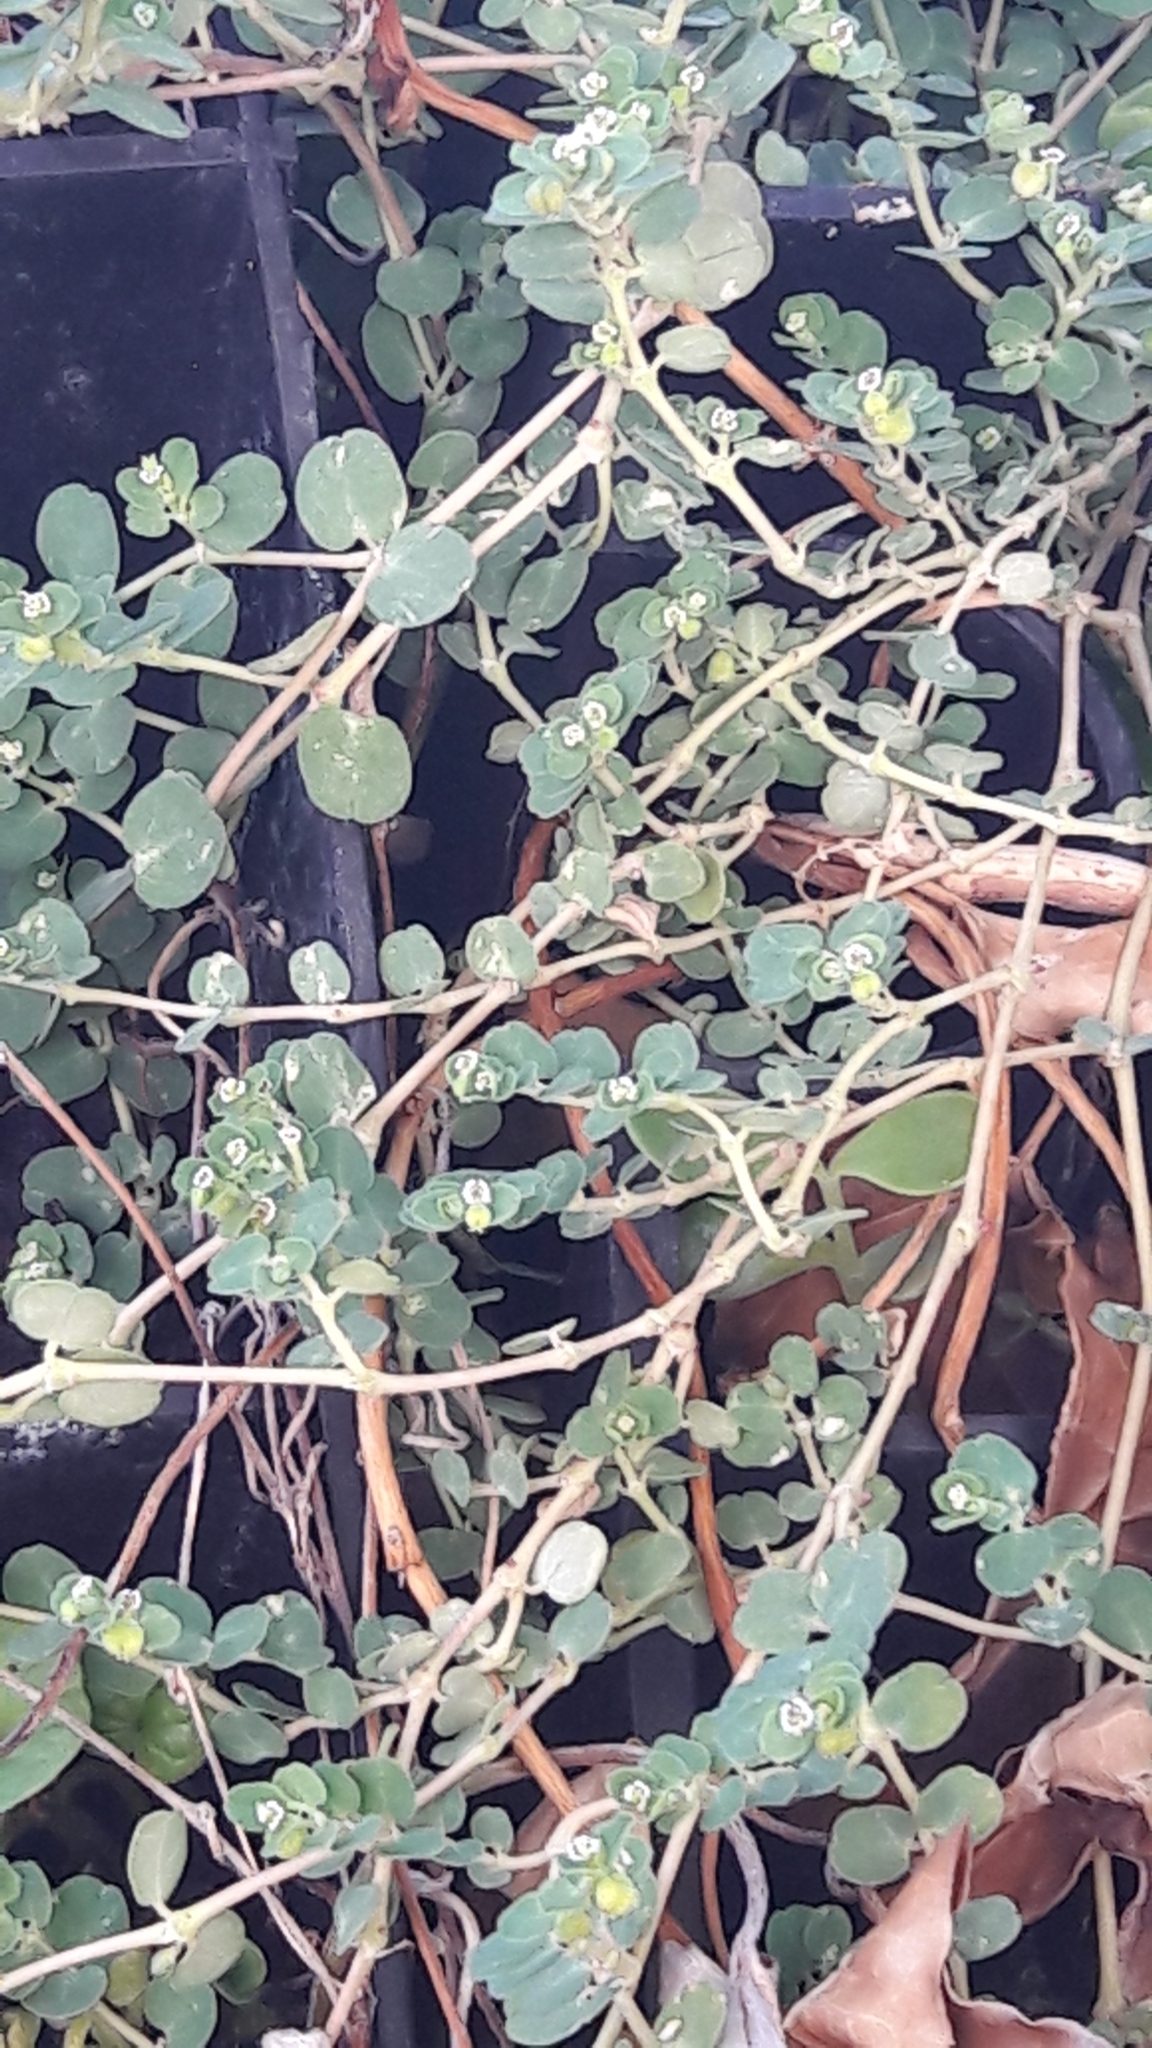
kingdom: Plantae
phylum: Tracheophyta
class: Magnoliopsida
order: Malpighiales
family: Euphorbiaceae
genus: Euphorbia
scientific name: Euphorbia serpens
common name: Matted sandmat
